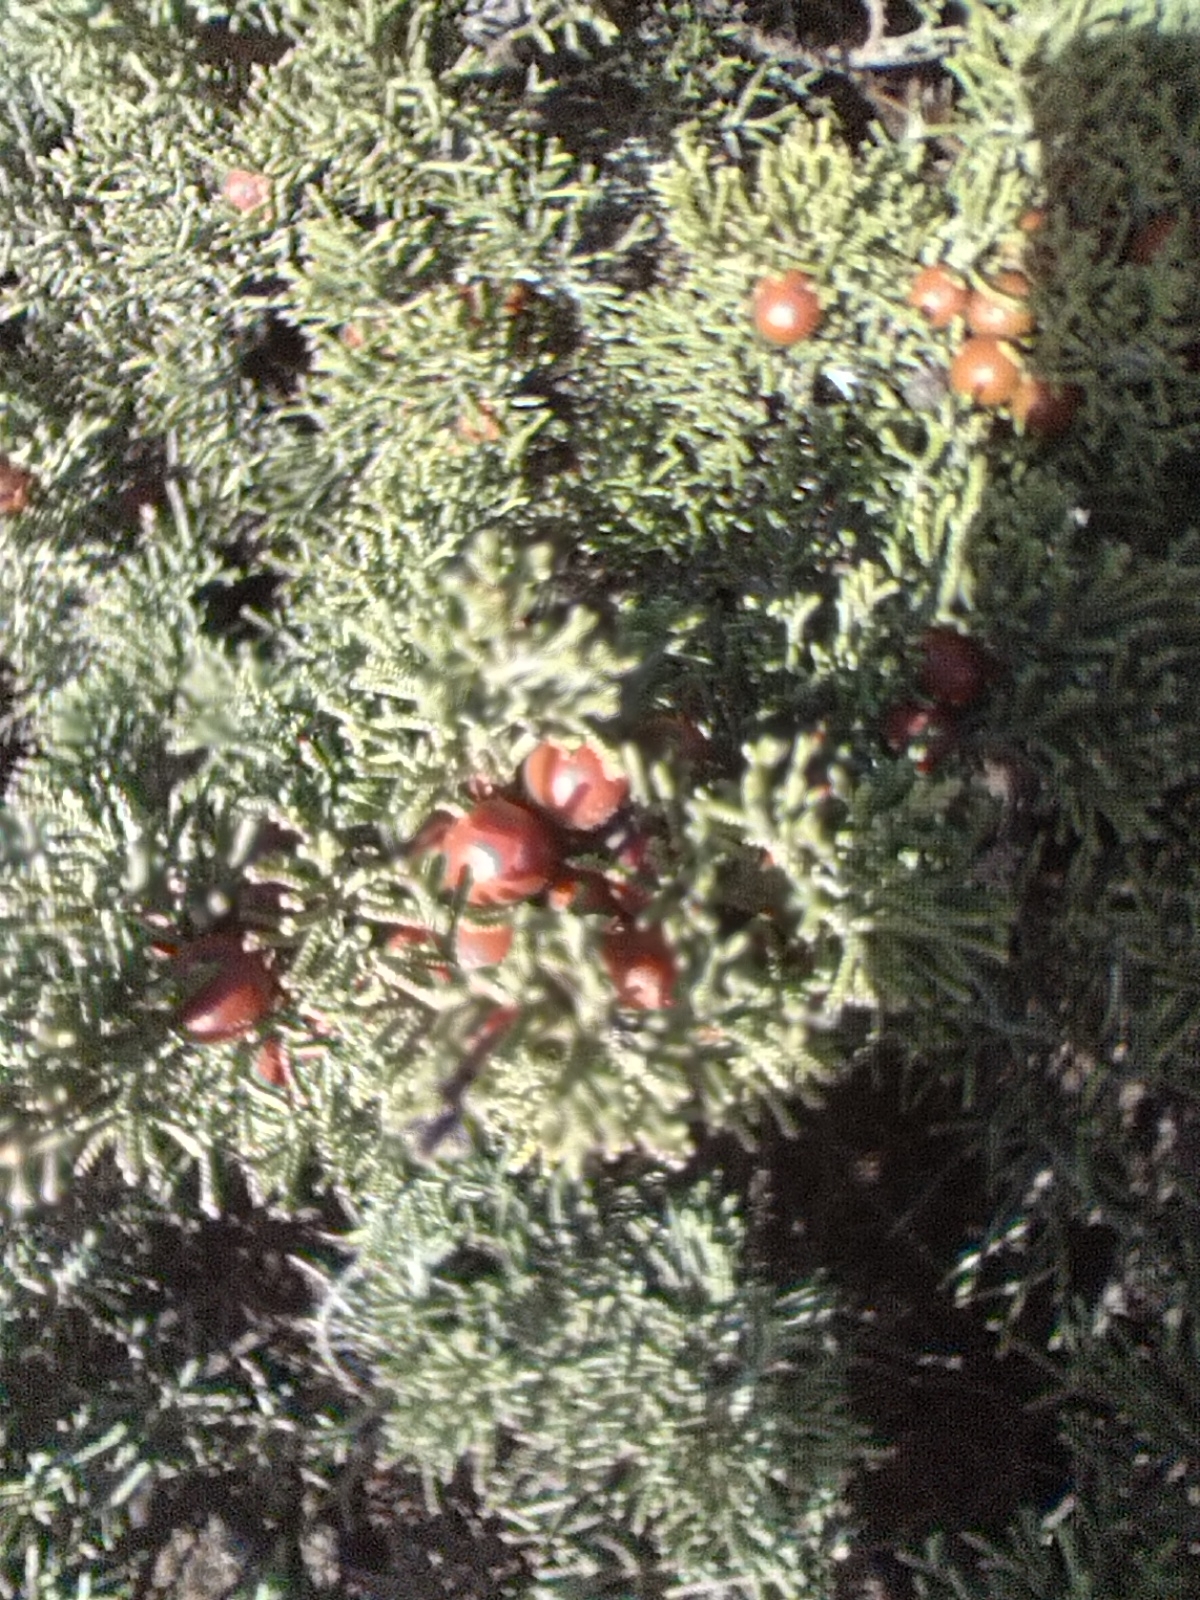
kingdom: Plantae
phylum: Tracheophyta
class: Pinopsida
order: Pinales
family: Cupressaceae
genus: Juniperus
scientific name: Juniperus phoenicea
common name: Phoenician juniper
